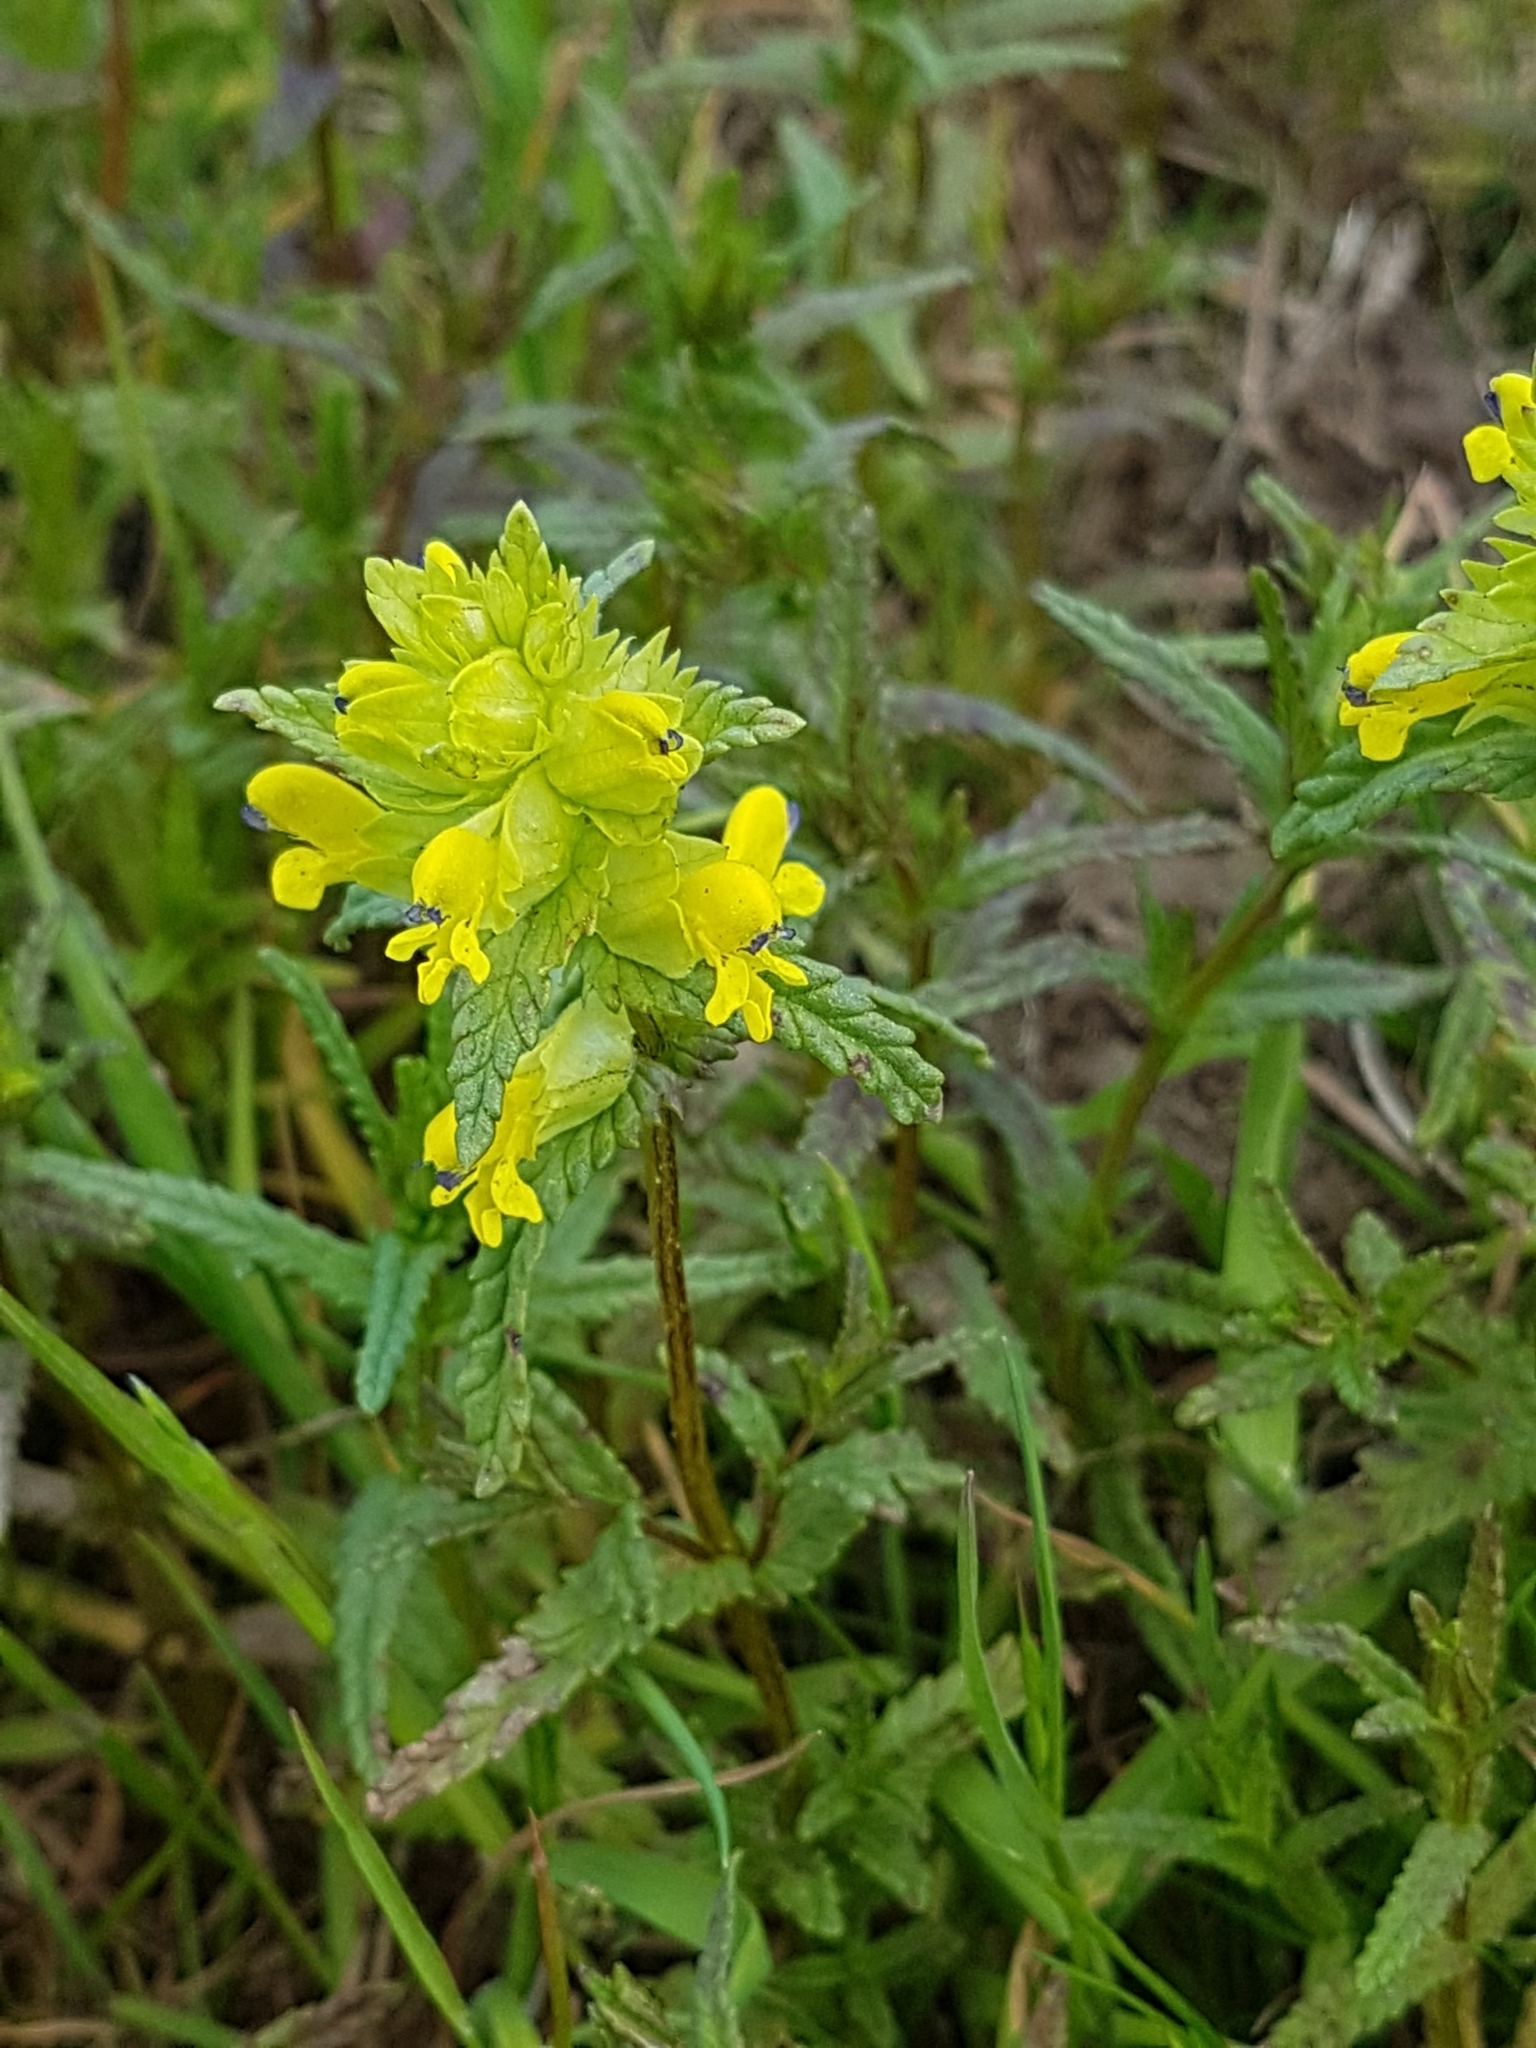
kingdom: Plantae
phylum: Tracheophyta
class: Magnoliopsida
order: Lamiales
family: Orobanchaceae
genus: Rhinanthus
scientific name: Rhinanthus minor
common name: Yellow-rattle
